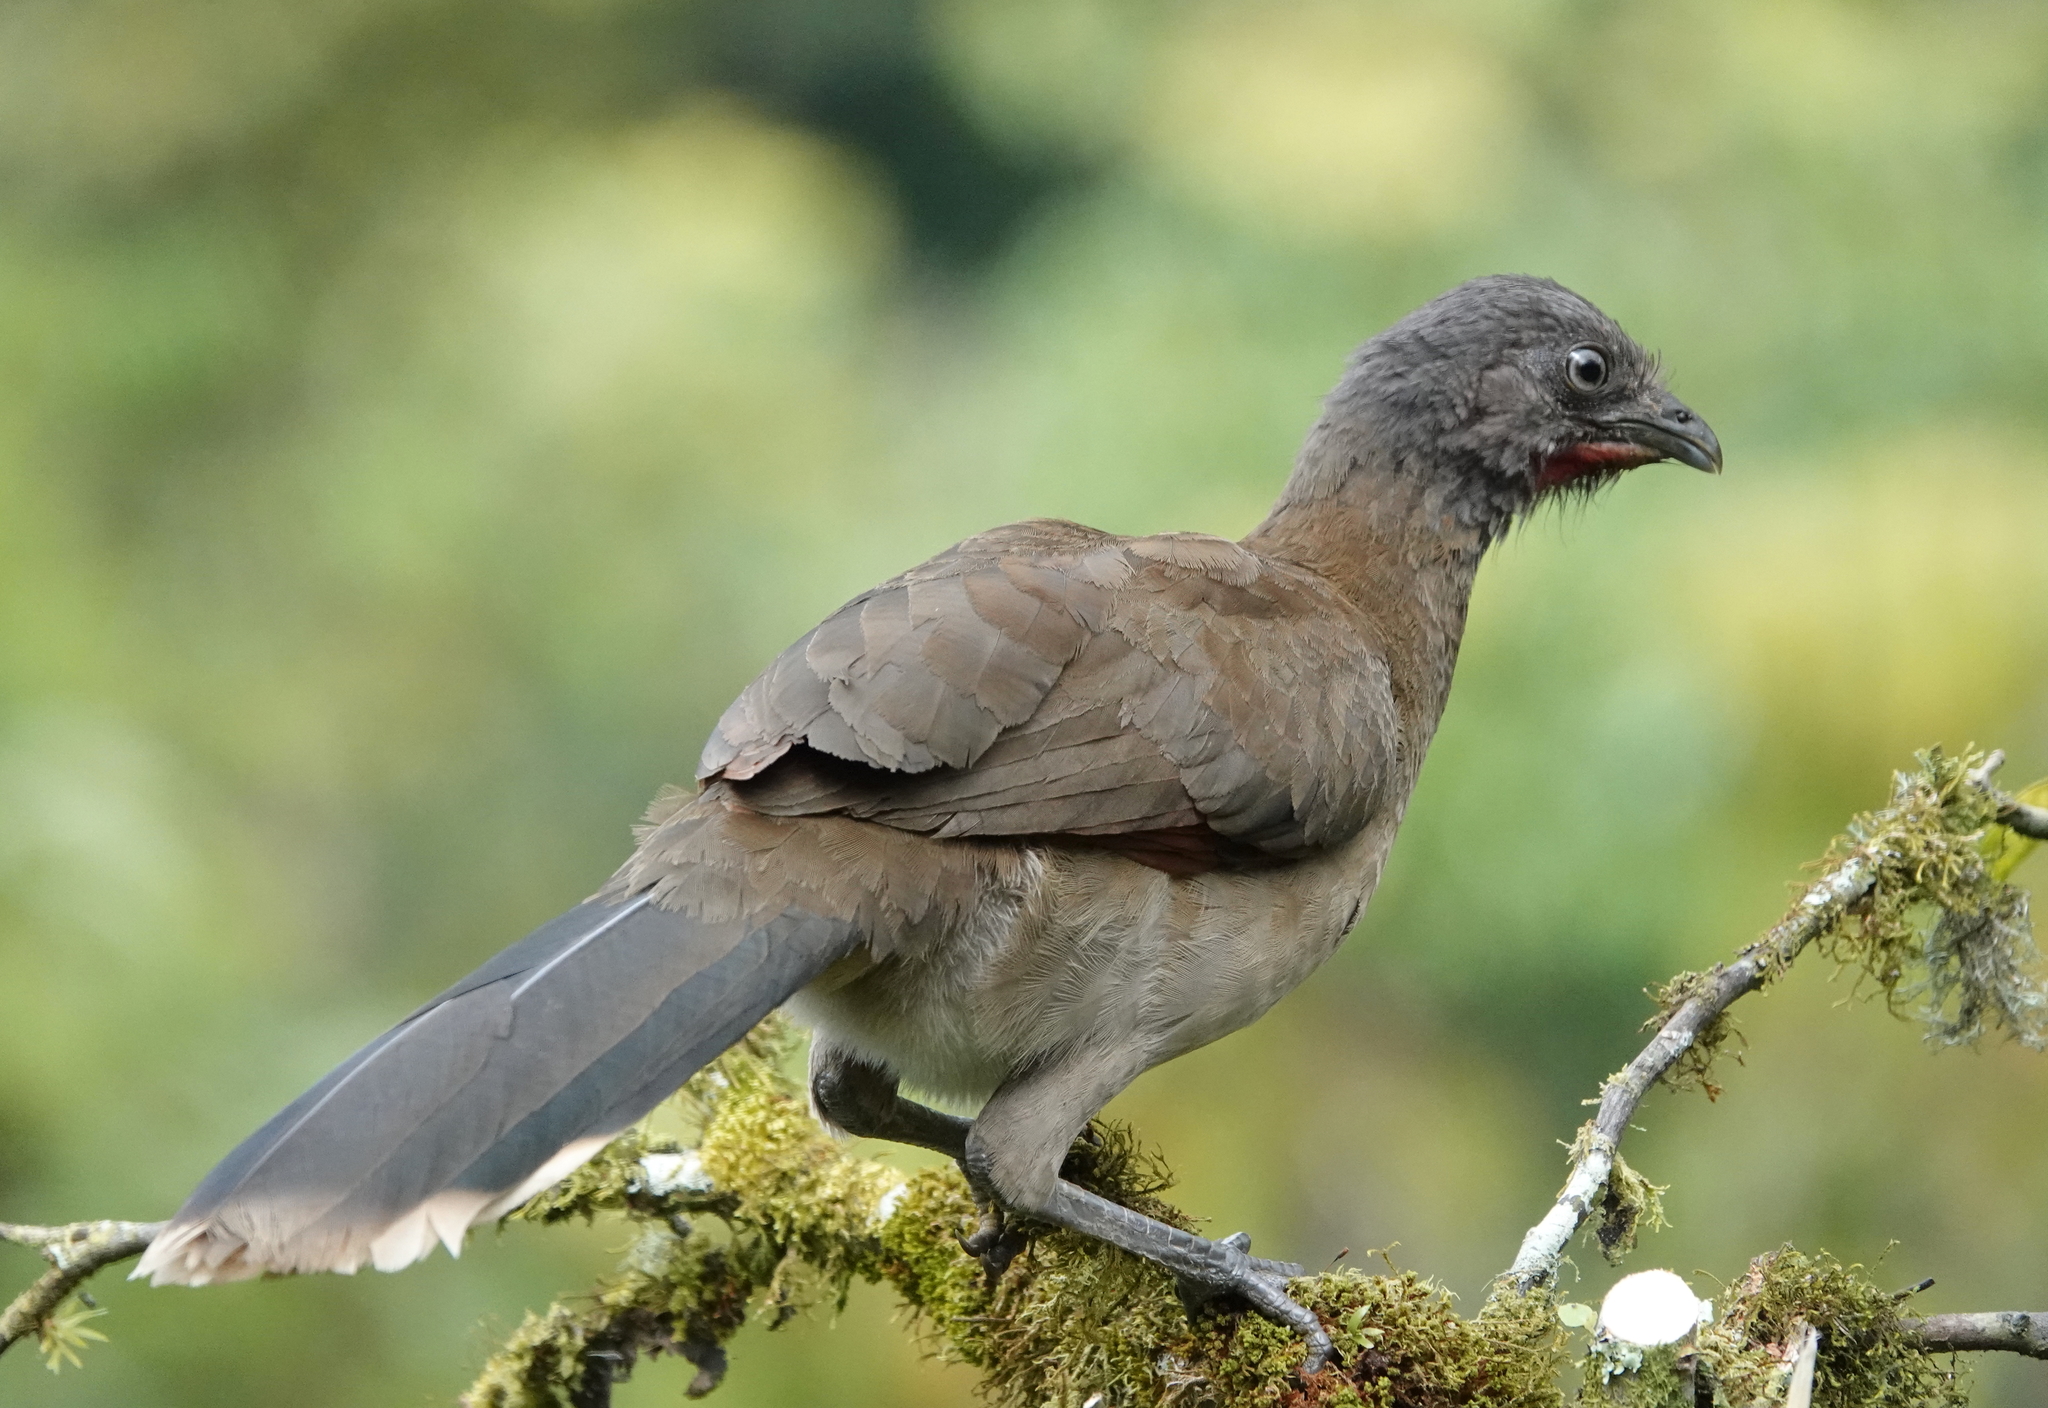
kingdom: Animalia
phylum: Chordata
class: Aves
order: Galliformes
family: Cracidae
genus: Ortalis
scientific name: Ortalis cinereiceps
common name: Grey-headed chachalaca
